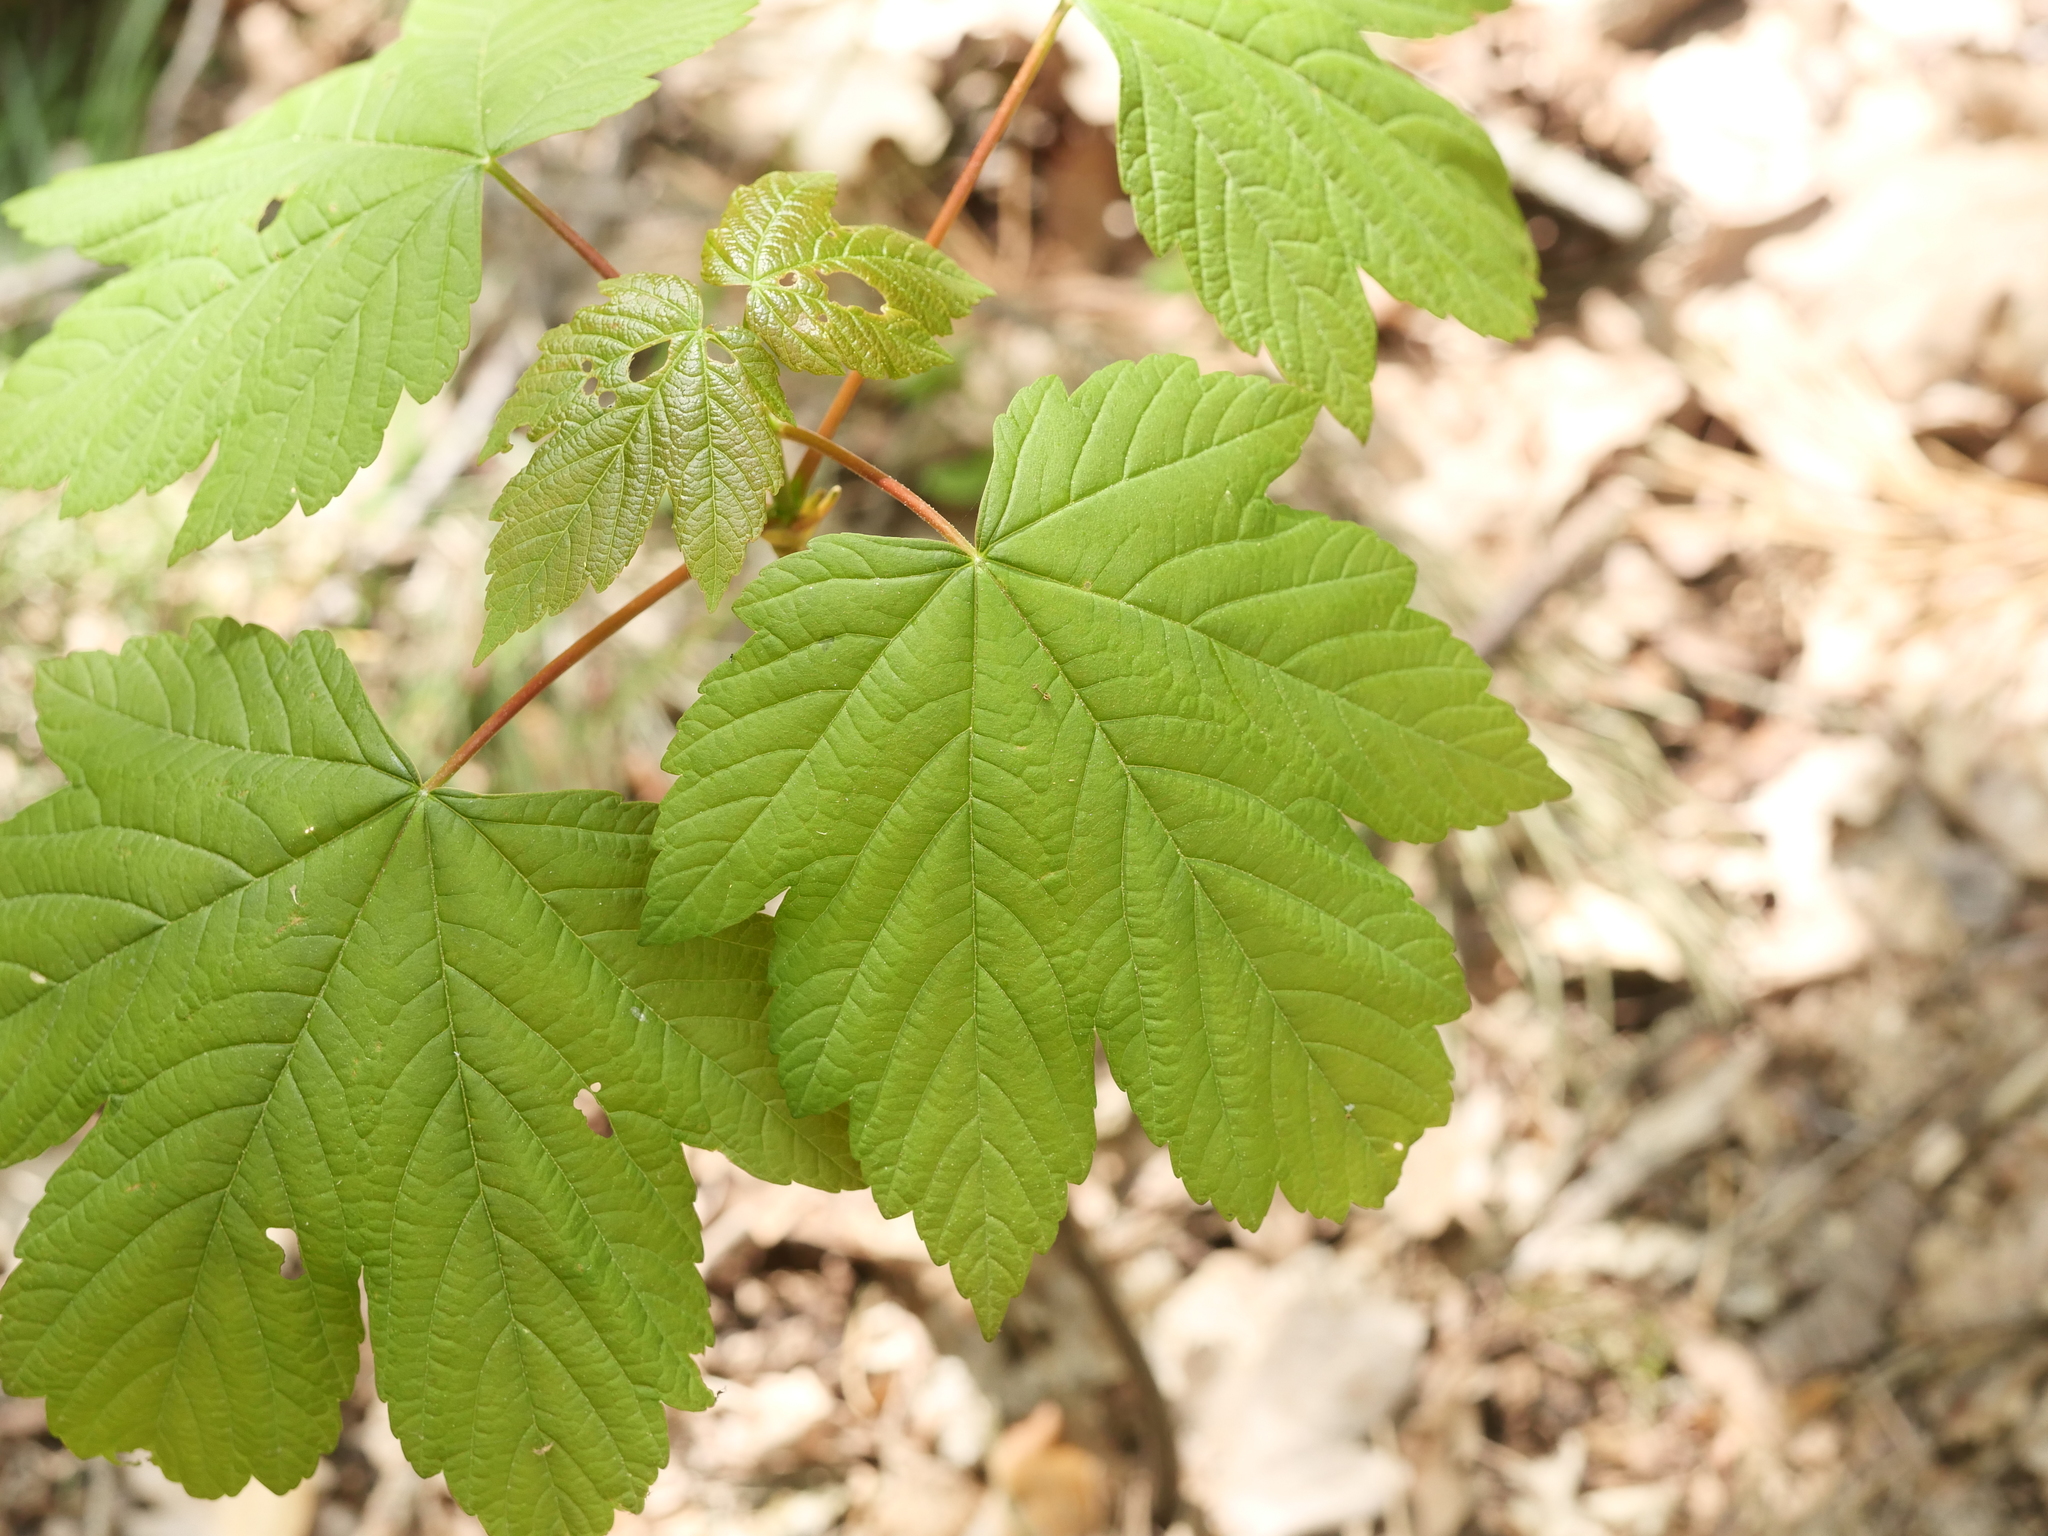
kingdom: Plantae
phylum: Tracheophyta
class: Magnoliopsida
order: Sapindales
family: Sapindaceae
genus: Acer
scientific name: Acer pseudoplatanus
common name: Sycamore
